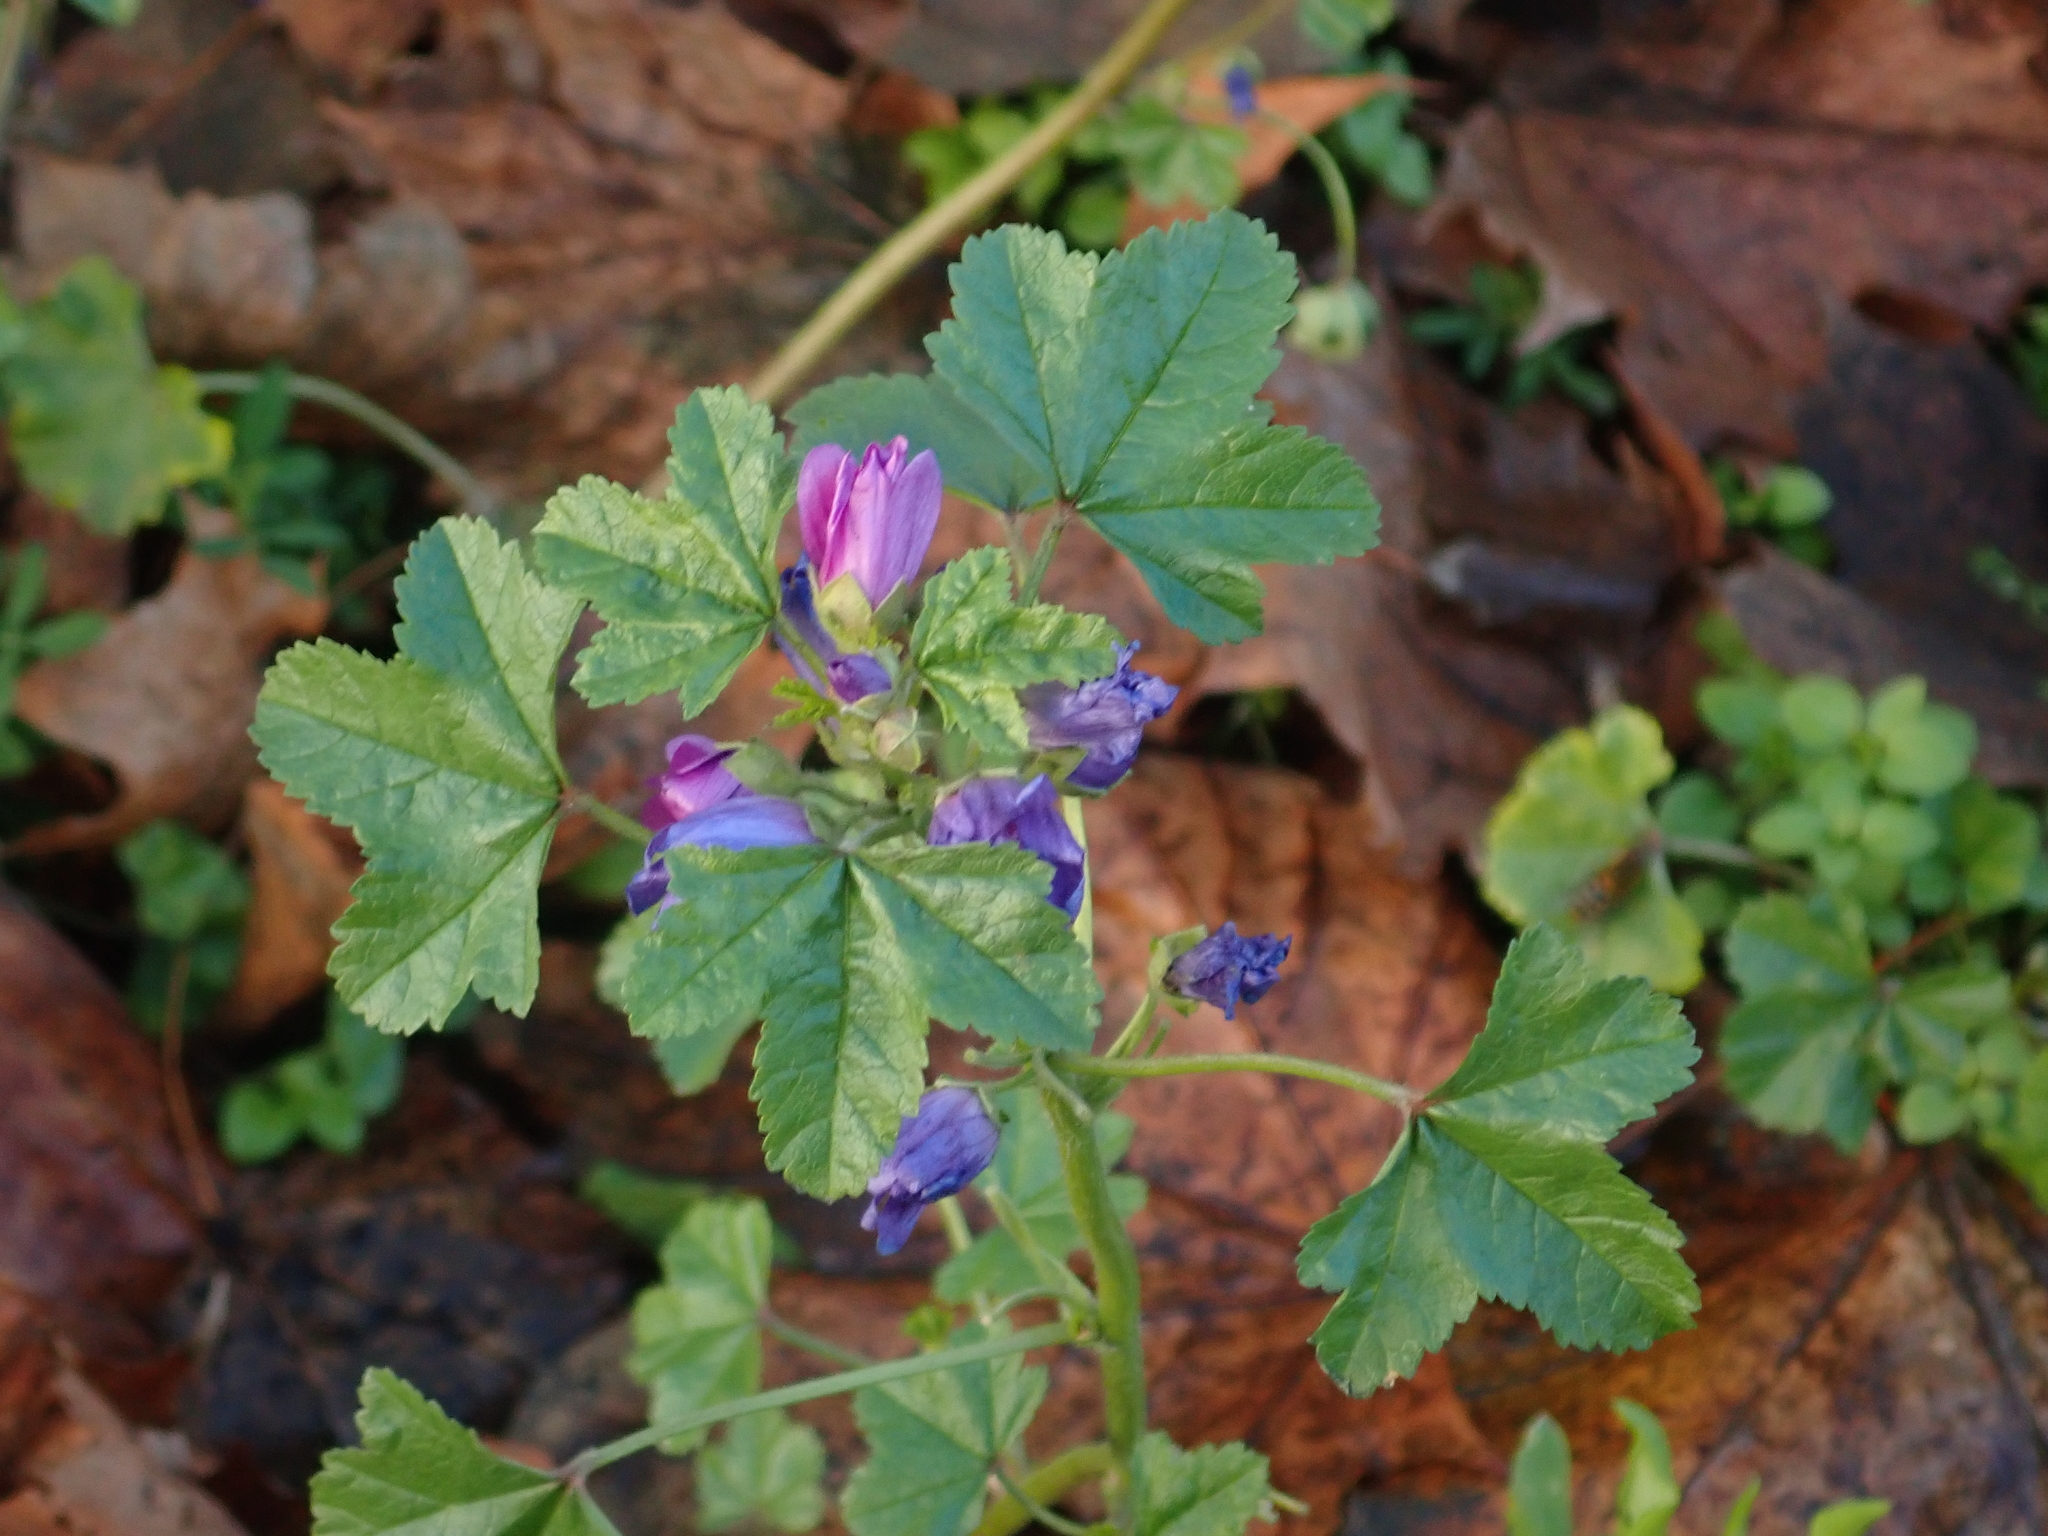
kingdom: Plantae
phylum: Tracheophyta
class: Magnoliopsida
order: Malvales
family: Malvaceae
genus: Malva
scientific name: Malva sylvestris
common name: Common mallow
